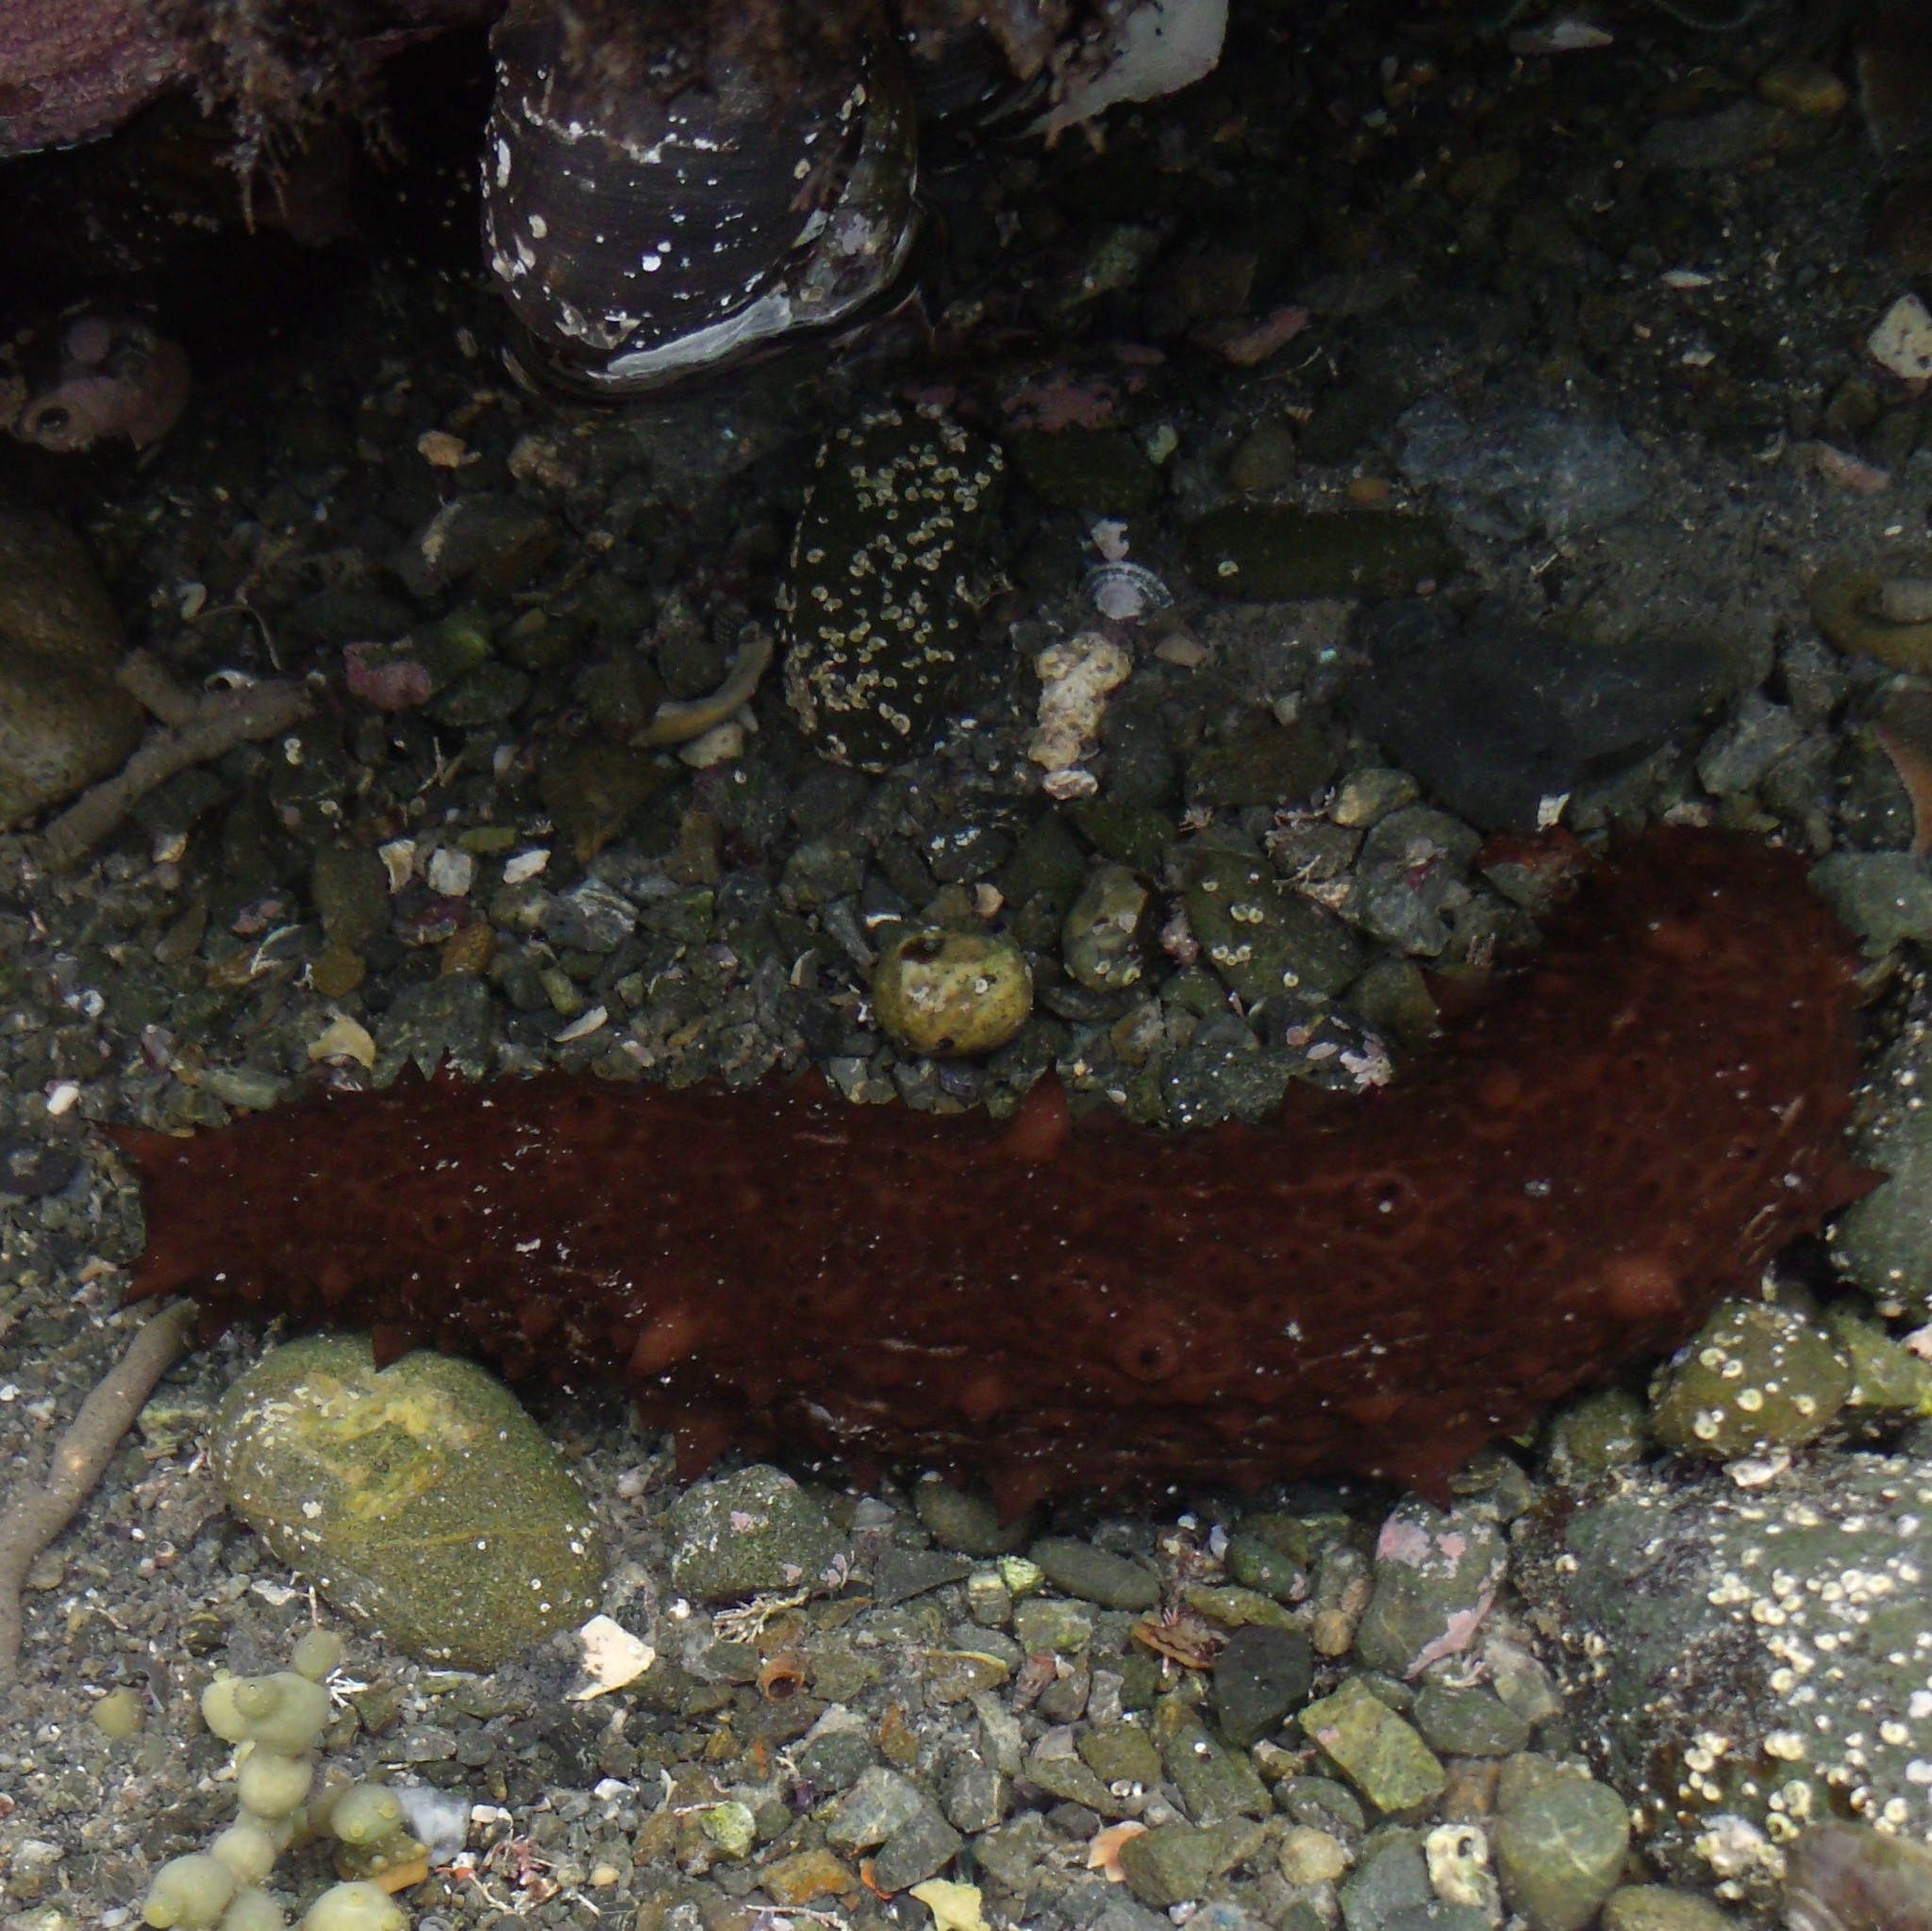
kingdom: Animalia
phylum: Echinodermata
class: Holothuroidea
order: Synallactida
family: Stichopodidae
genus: Australostichopus
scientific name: Australostichopus mollis
